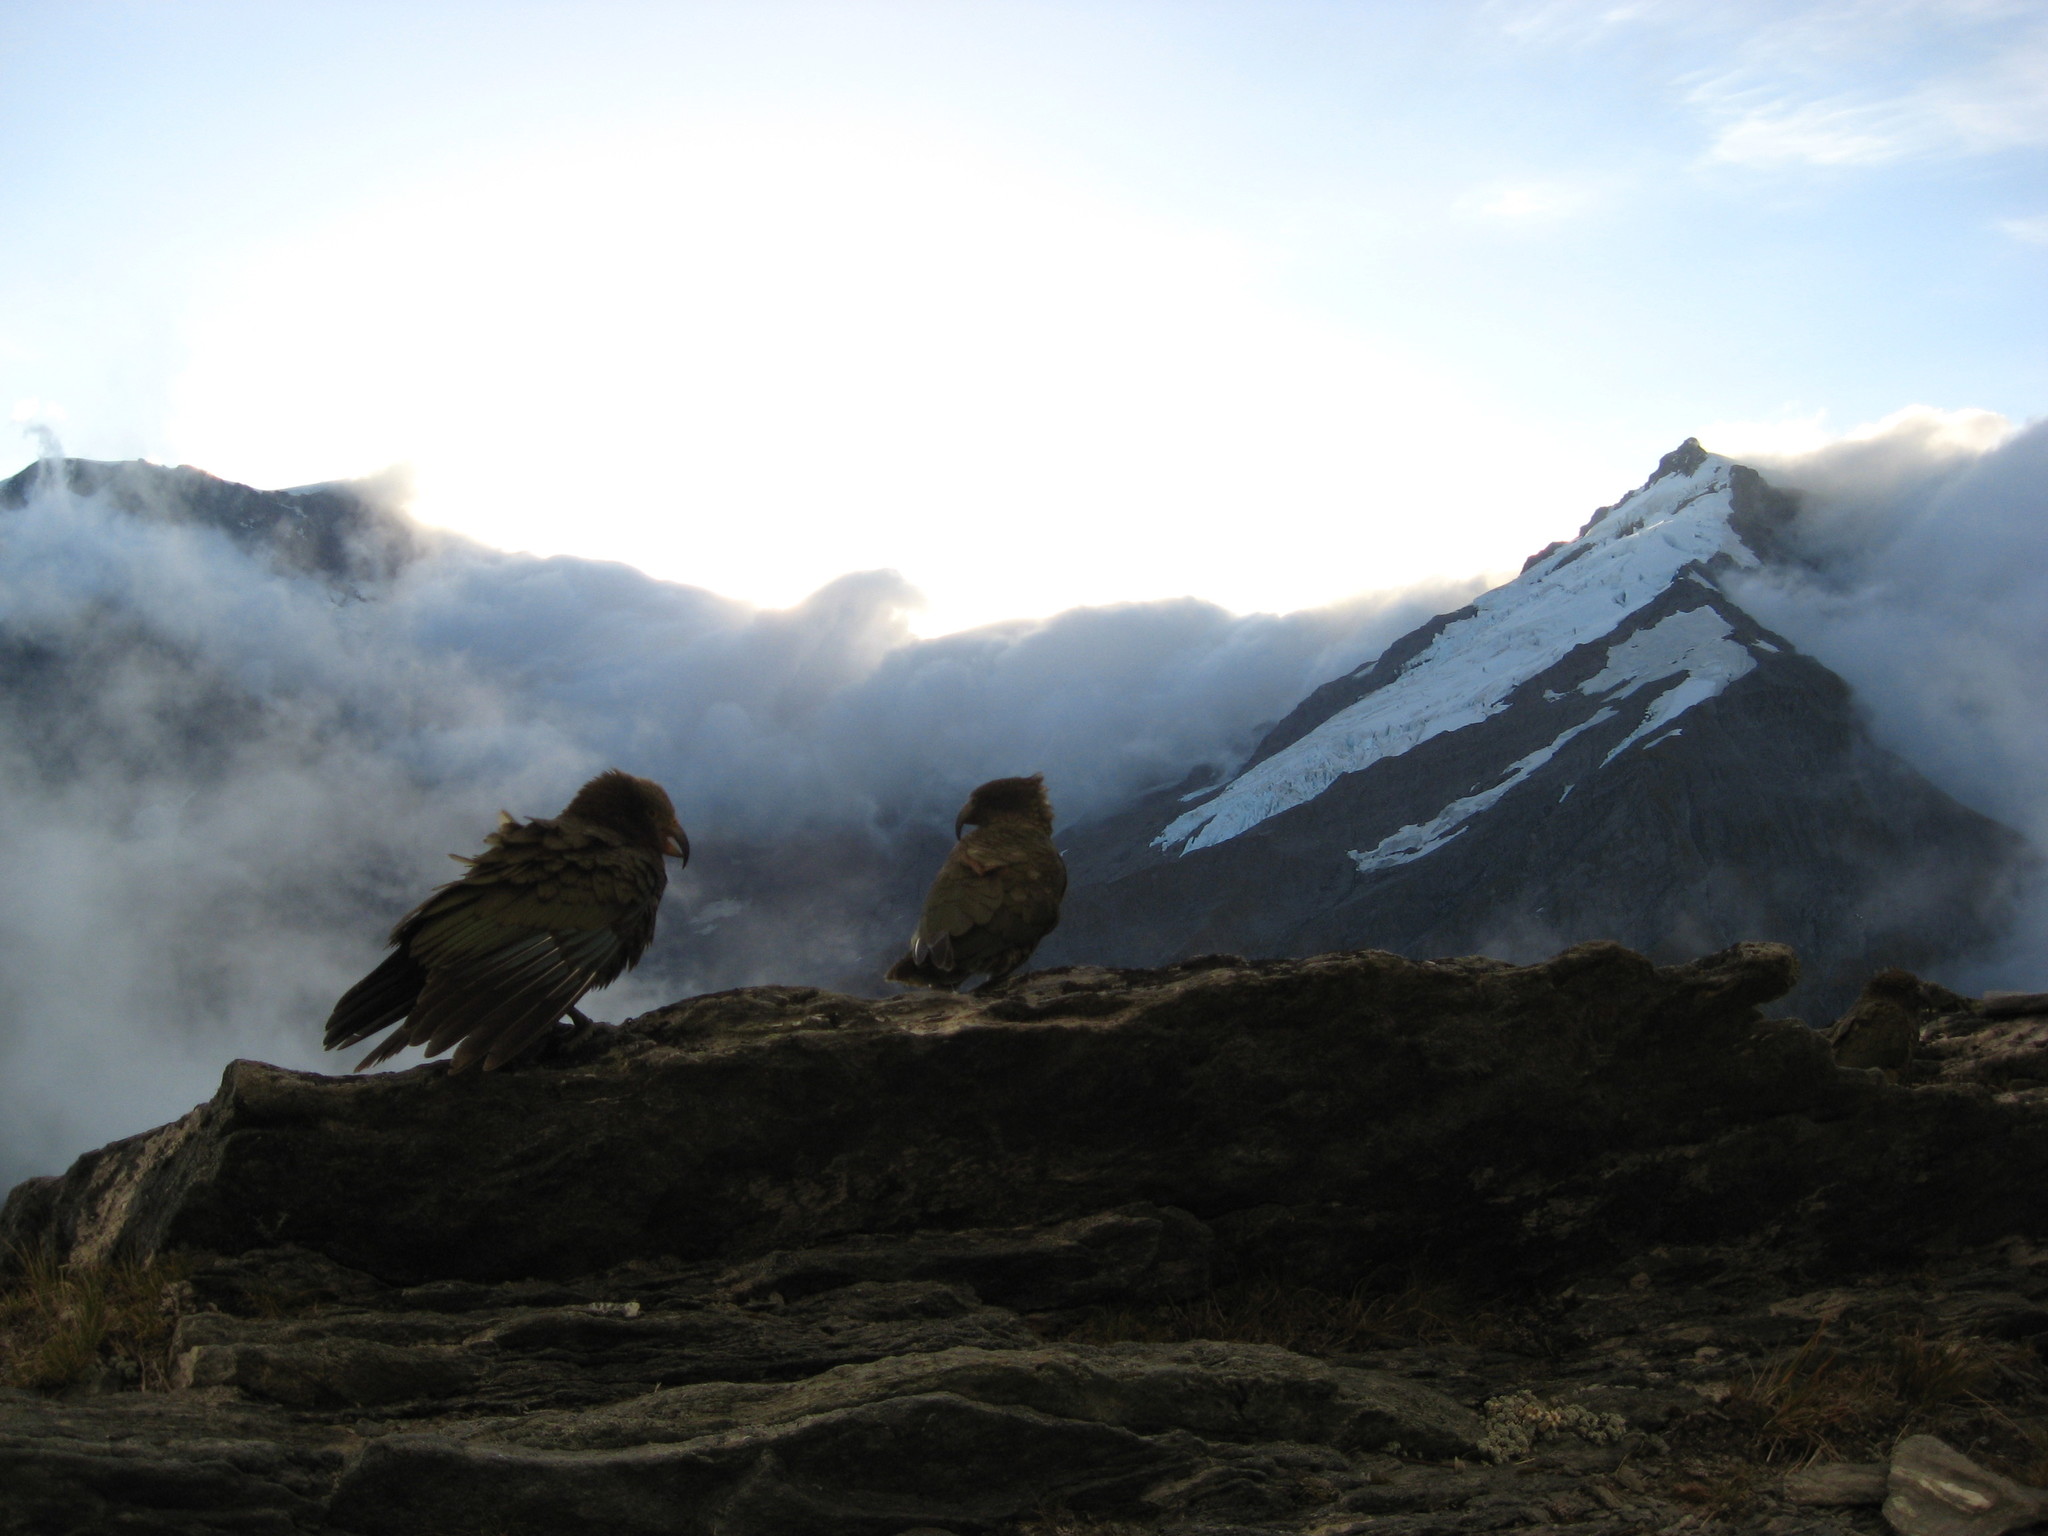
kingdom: Animalia
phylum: Chordata
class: Aves
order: Psittaciformes
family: Psittacidae
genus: Nestor
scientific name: Nestor notabilis
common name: Kea
